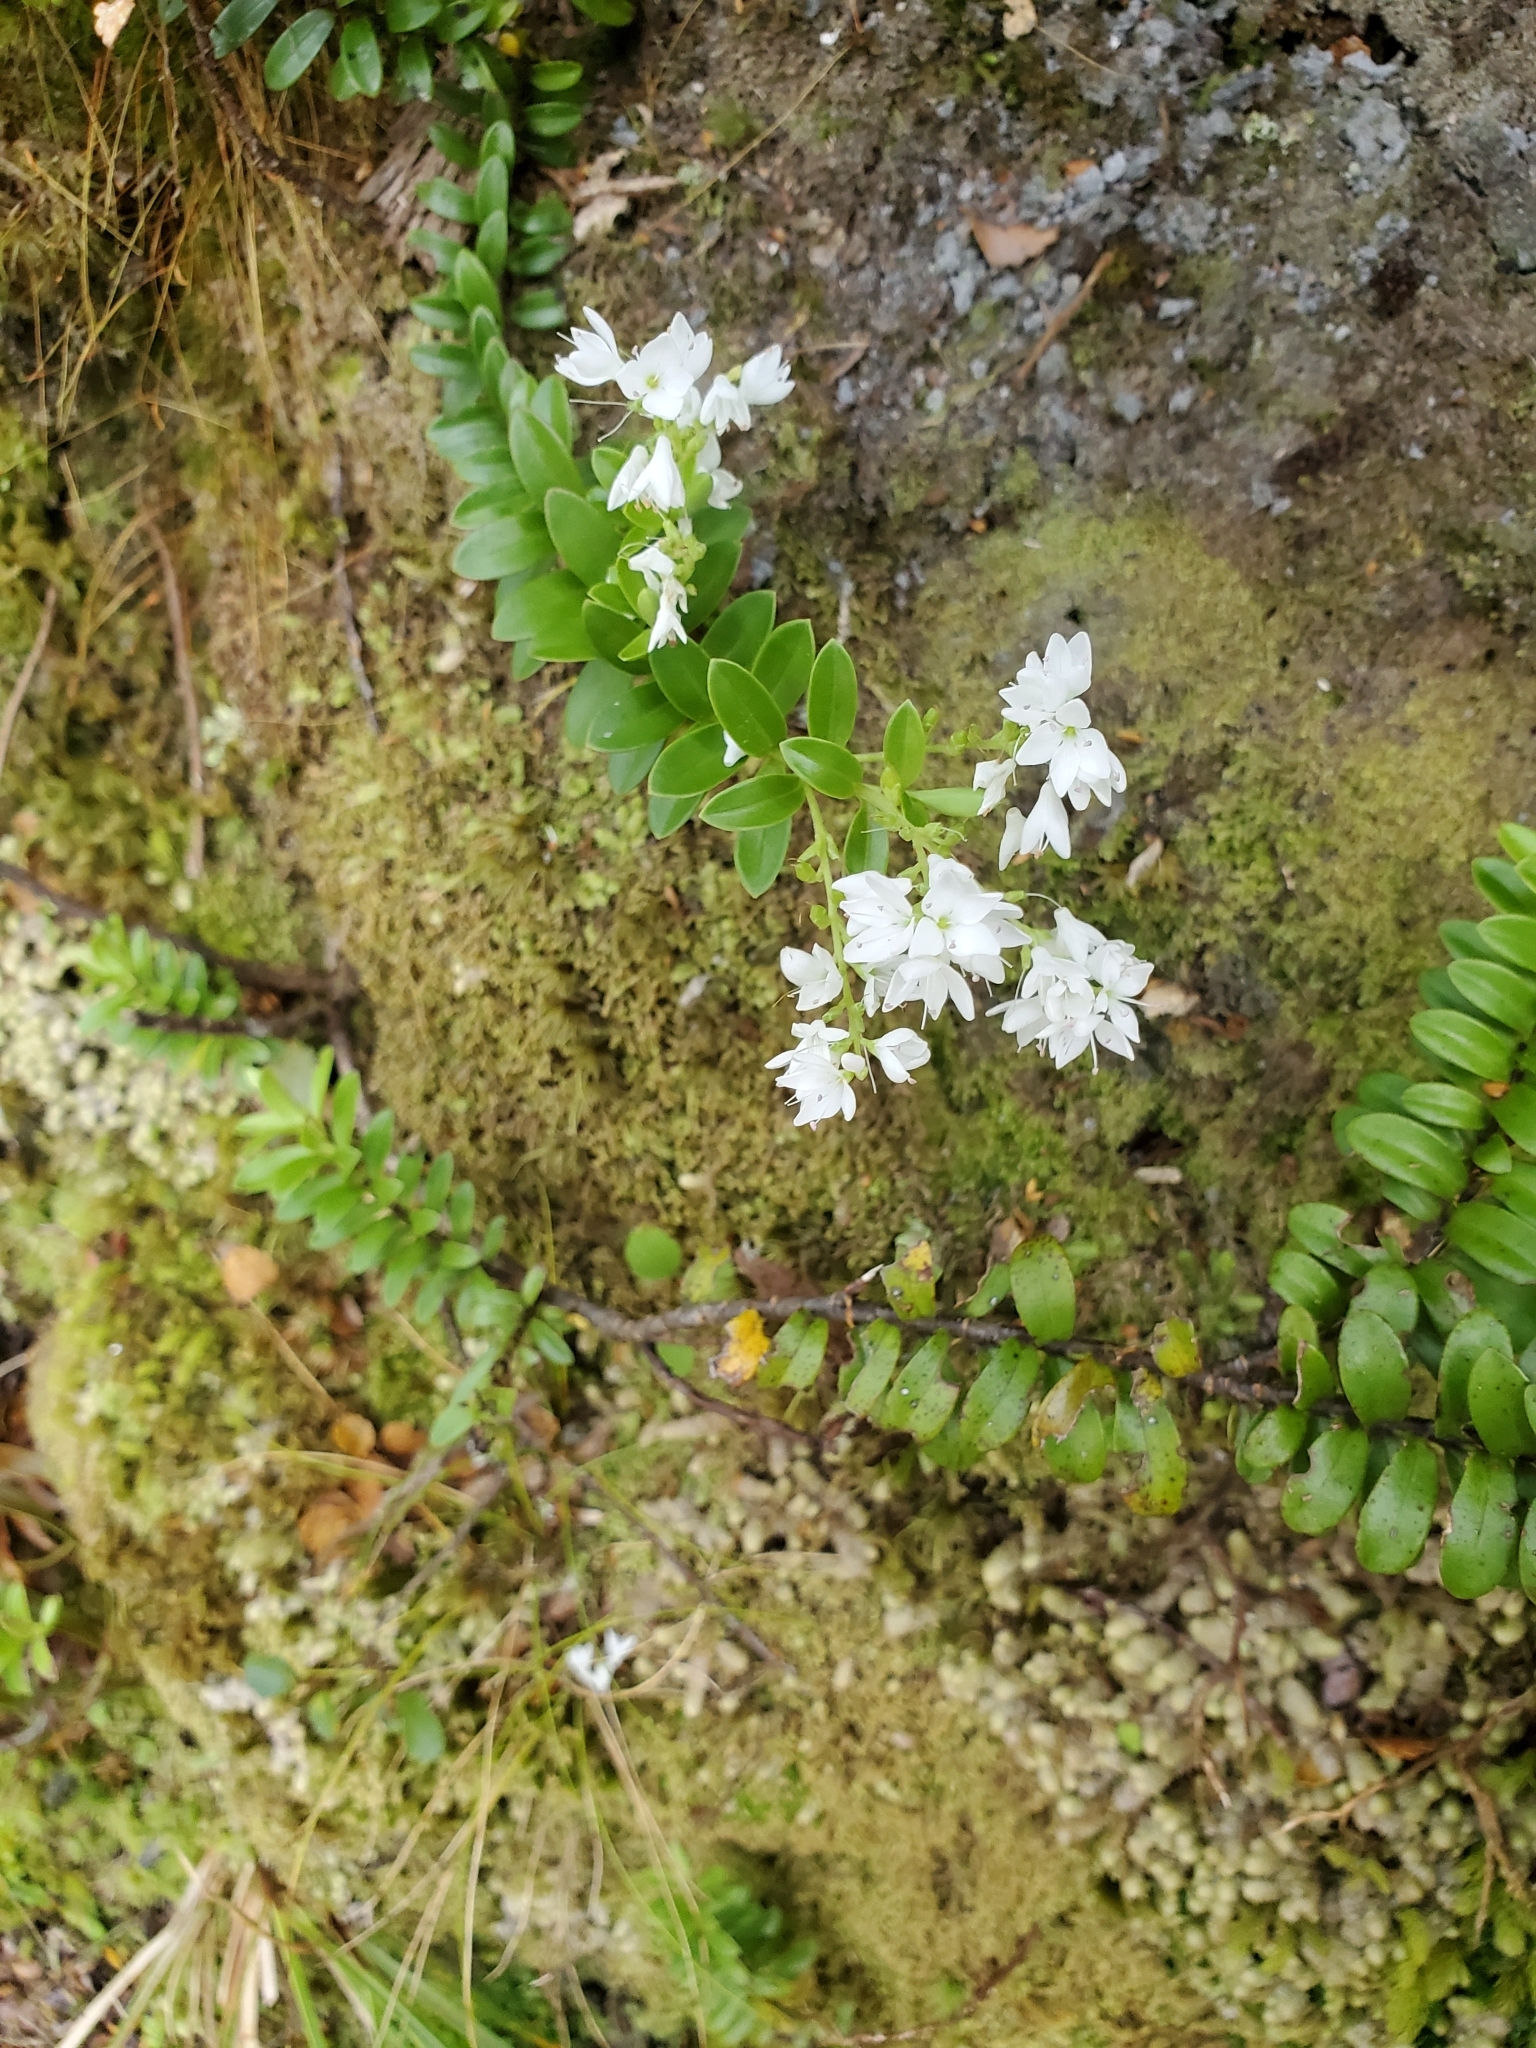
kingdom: Plantae
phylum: Tracheophyta
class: Magnoliopsida
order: Lamiales
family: Plantaginaceae
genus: Veronica
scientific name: Veronica vernicosa
